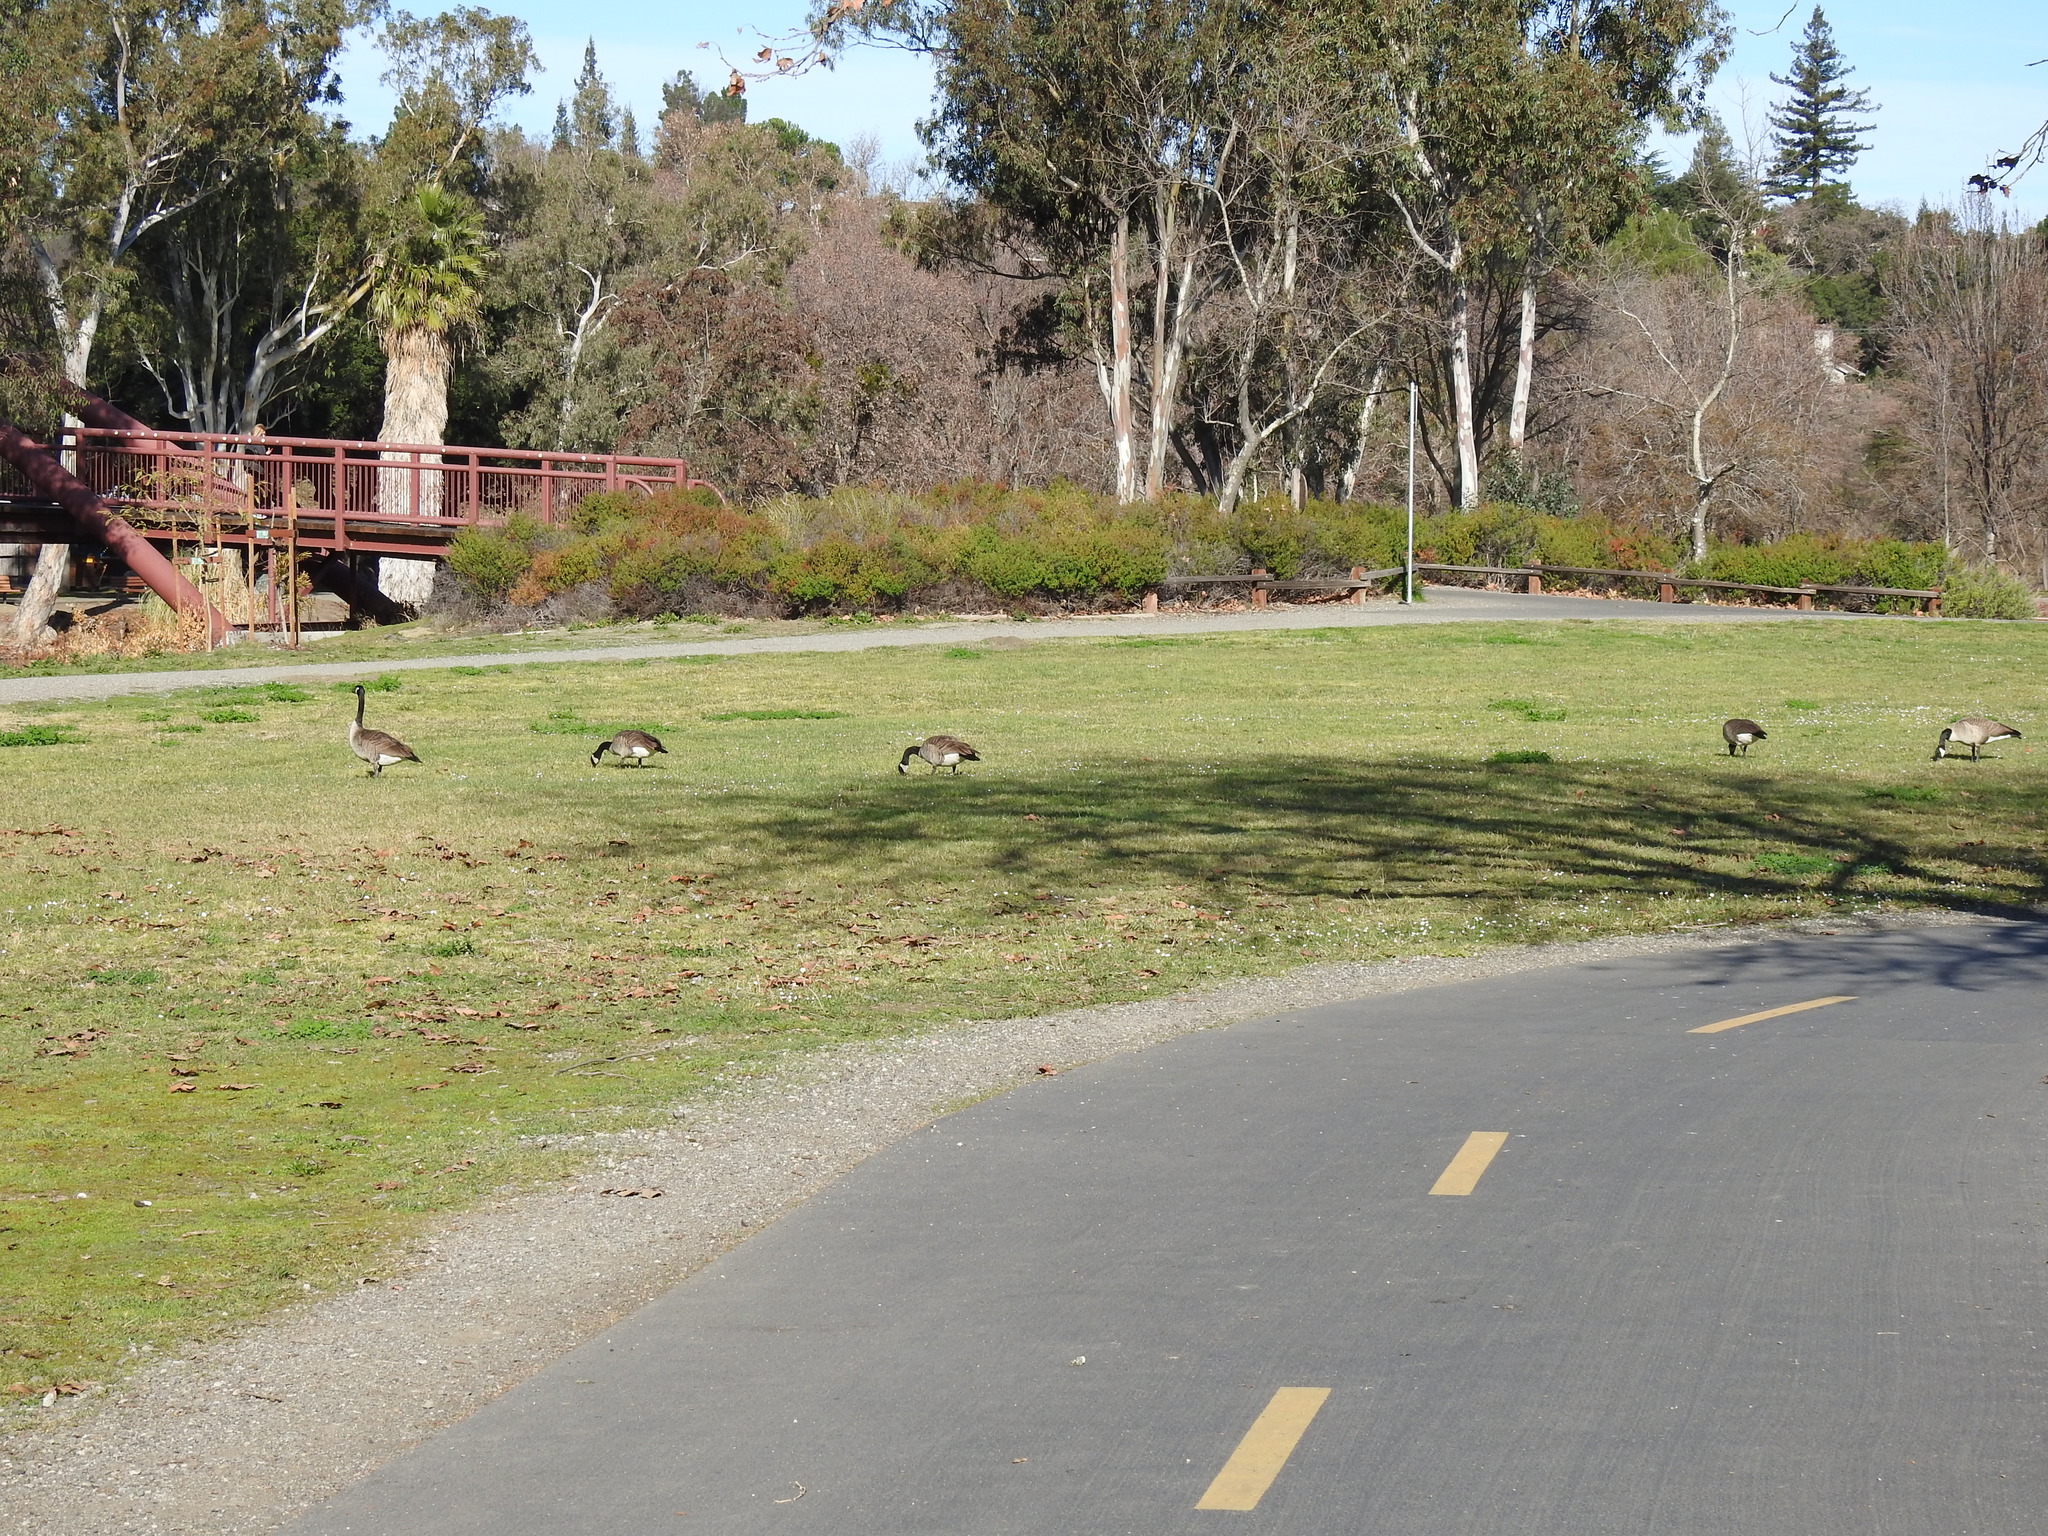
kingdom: Animalia
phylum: Chordata
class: Aves
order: Anseriformes
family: Anatidae
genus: Branta
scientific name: Branta canadensis
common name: Canada goose
